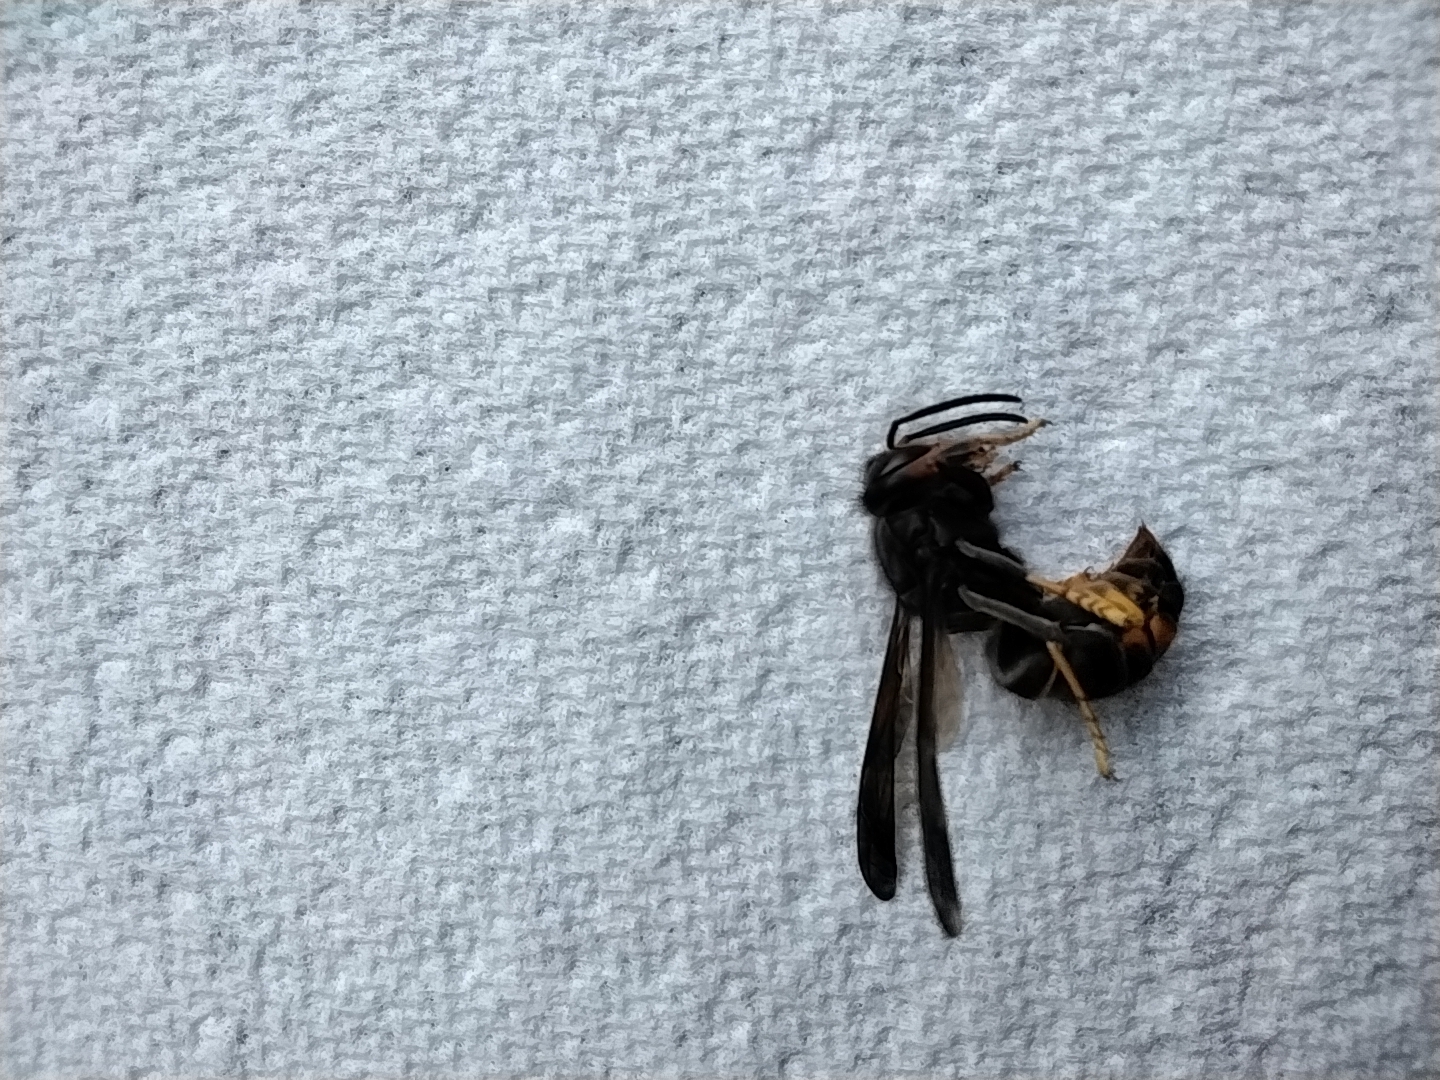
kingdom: Animalia
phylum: Arthropoda
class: Insecta
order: Hymenoptera
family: Vespidae
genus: Vespa
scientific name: Vespa velutina
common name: Asian hornet
